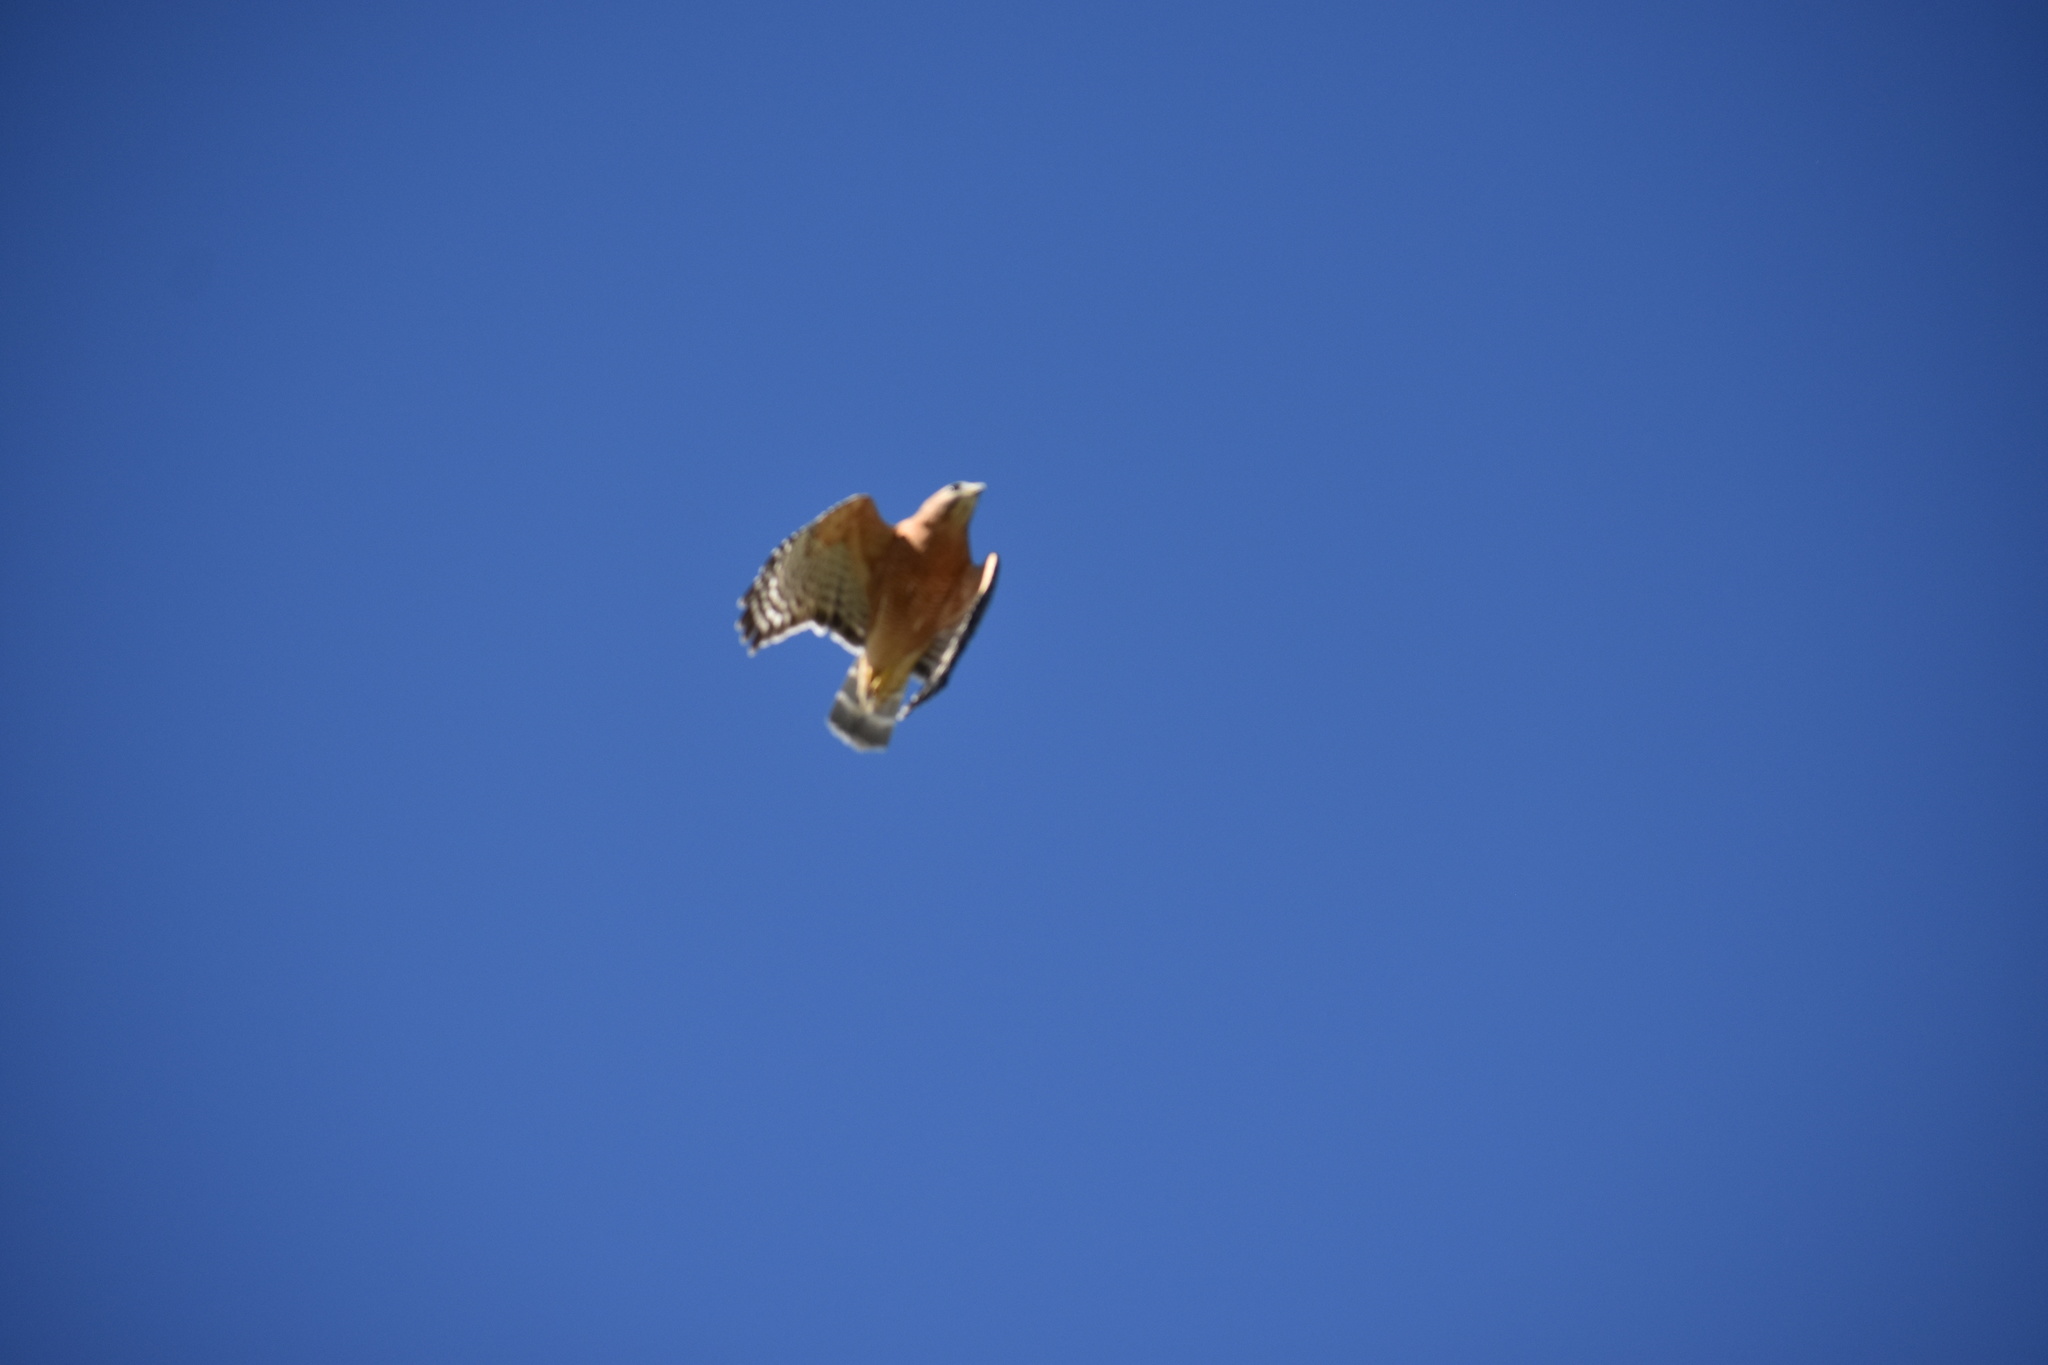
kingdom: Animalia
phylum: Chordata
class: Aves
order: Accipitriformes
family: Accipitridae
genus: Buteo
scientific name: Buteo lineatus
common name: Red-shouldered hawk
